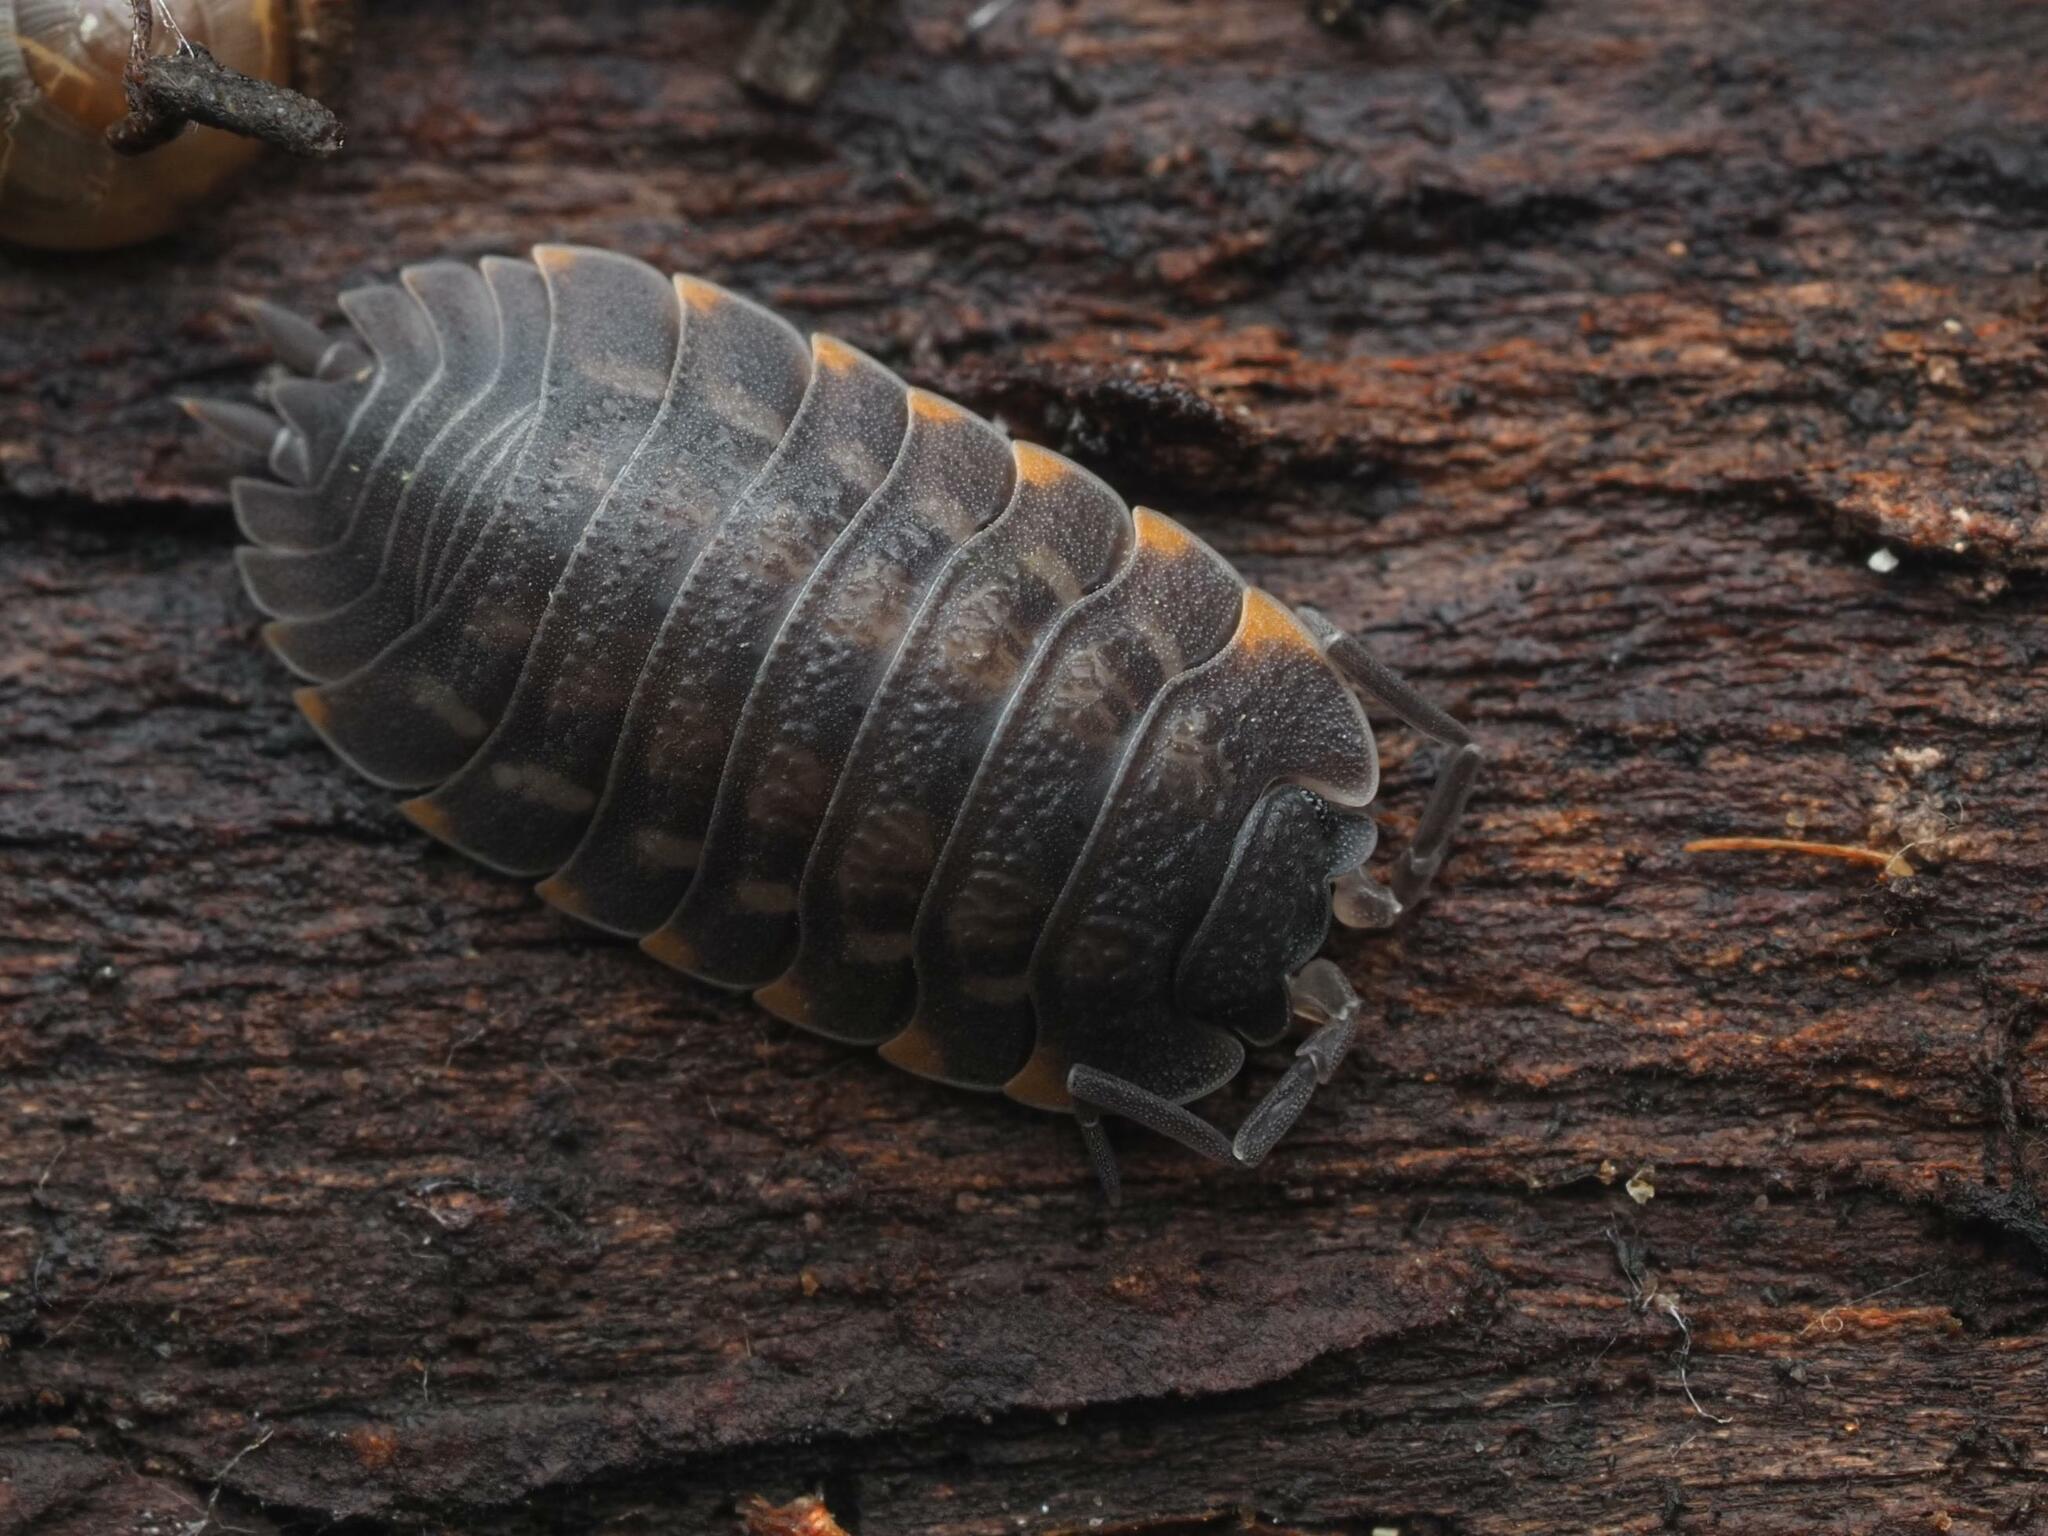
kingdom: Animalia
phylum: Arthropoda
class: Malacostraca
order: Isopoda
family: Trachelipodidae
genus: Trachelipus
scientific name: Trachelipus ratzeburgii
